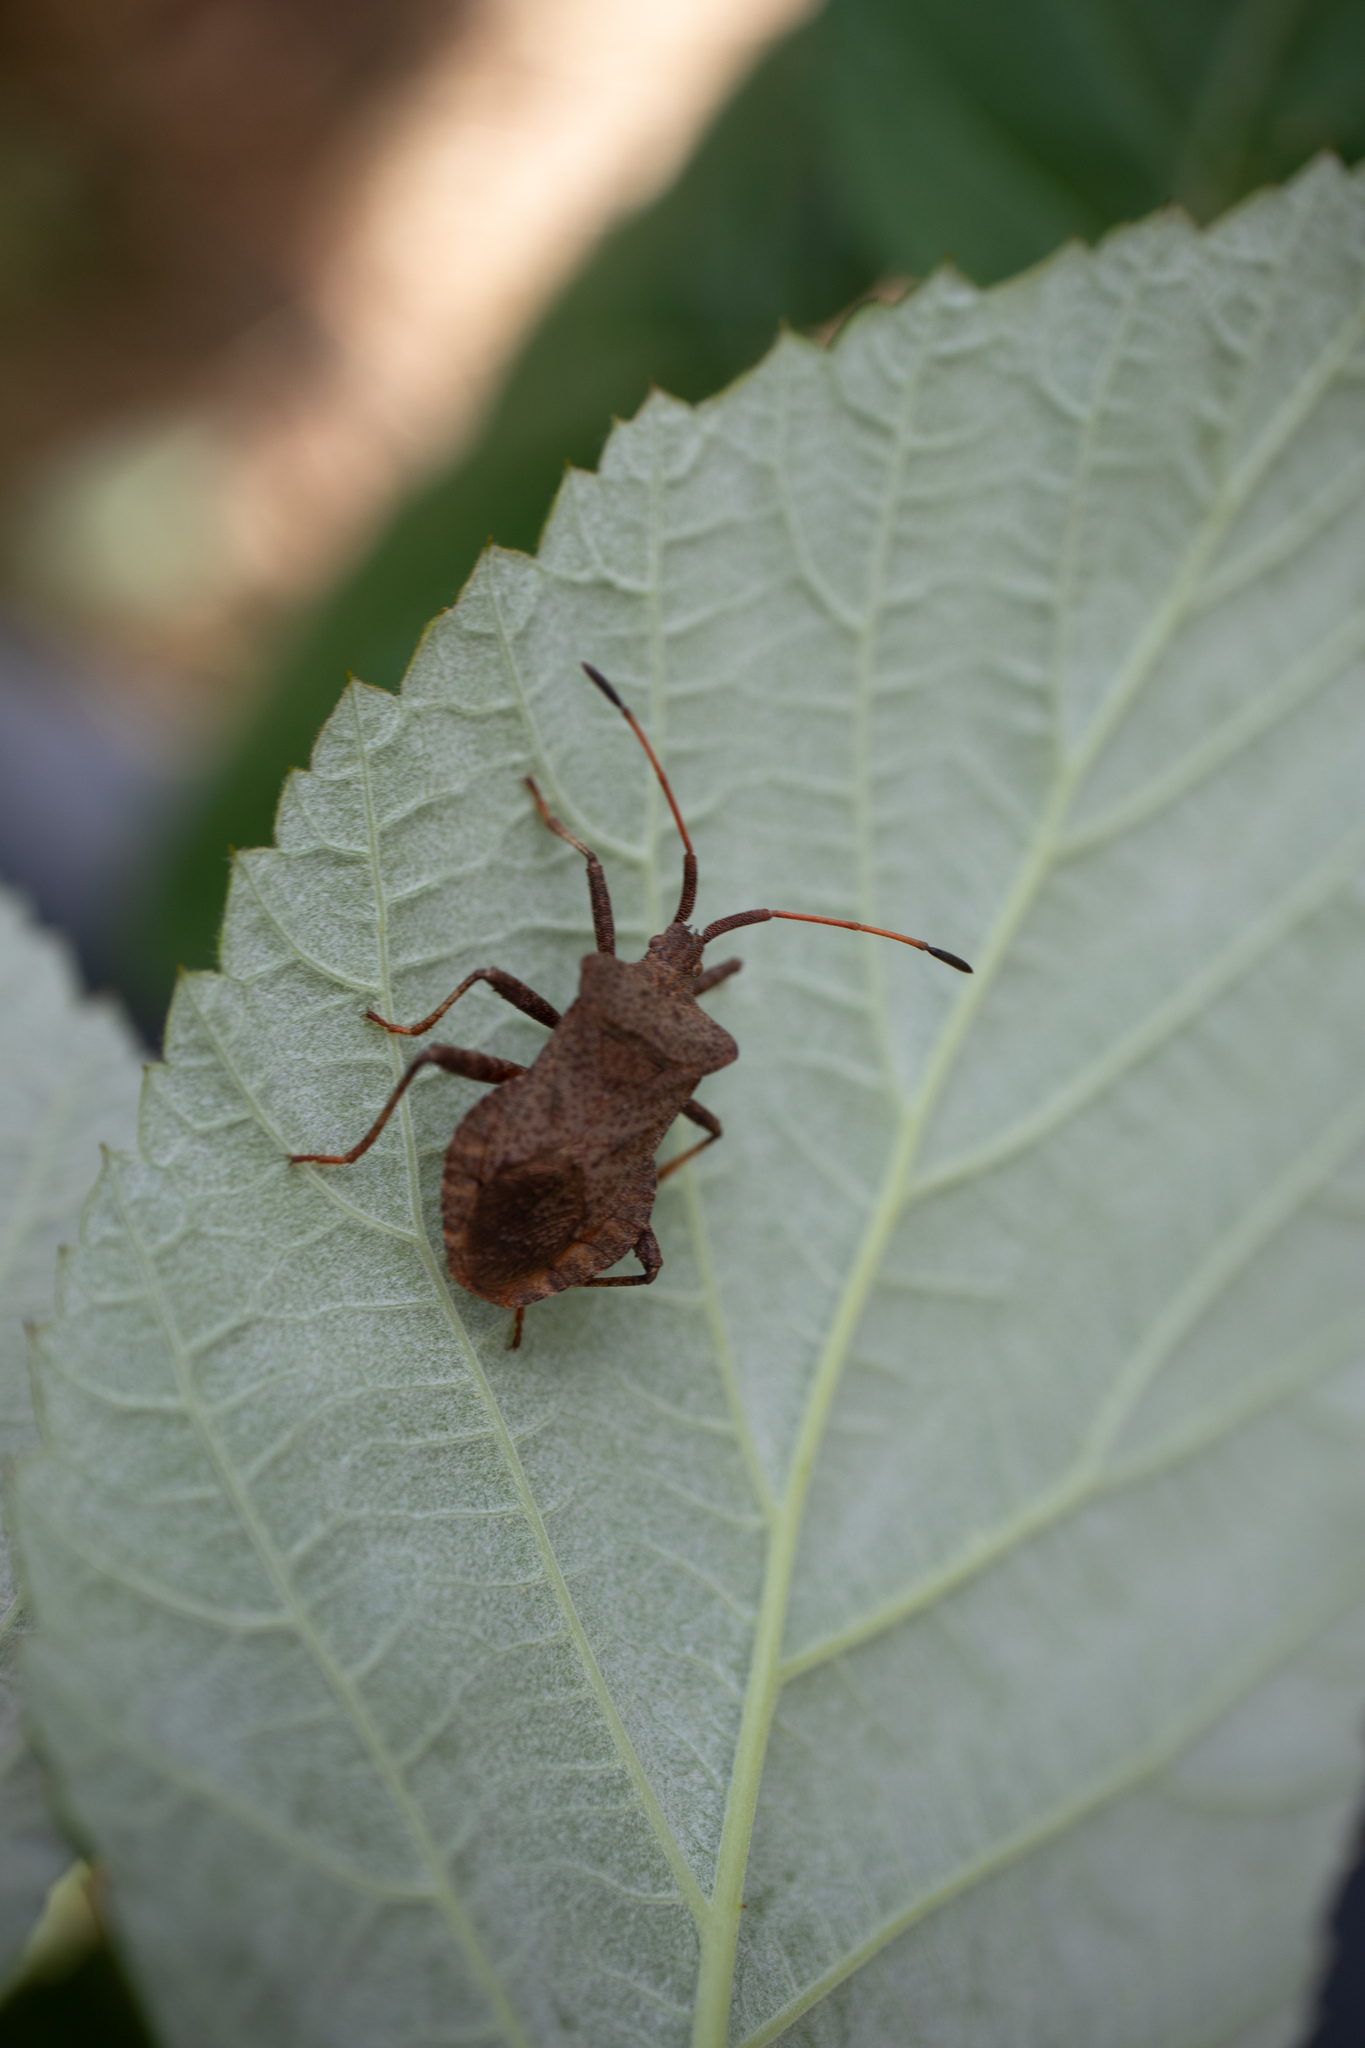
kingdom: Animalia
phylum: Arthropoda
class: Insecta
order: Hemiptera
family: Coreidae
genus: Coreus
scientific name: Coreus marginatus
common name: Dock bug
